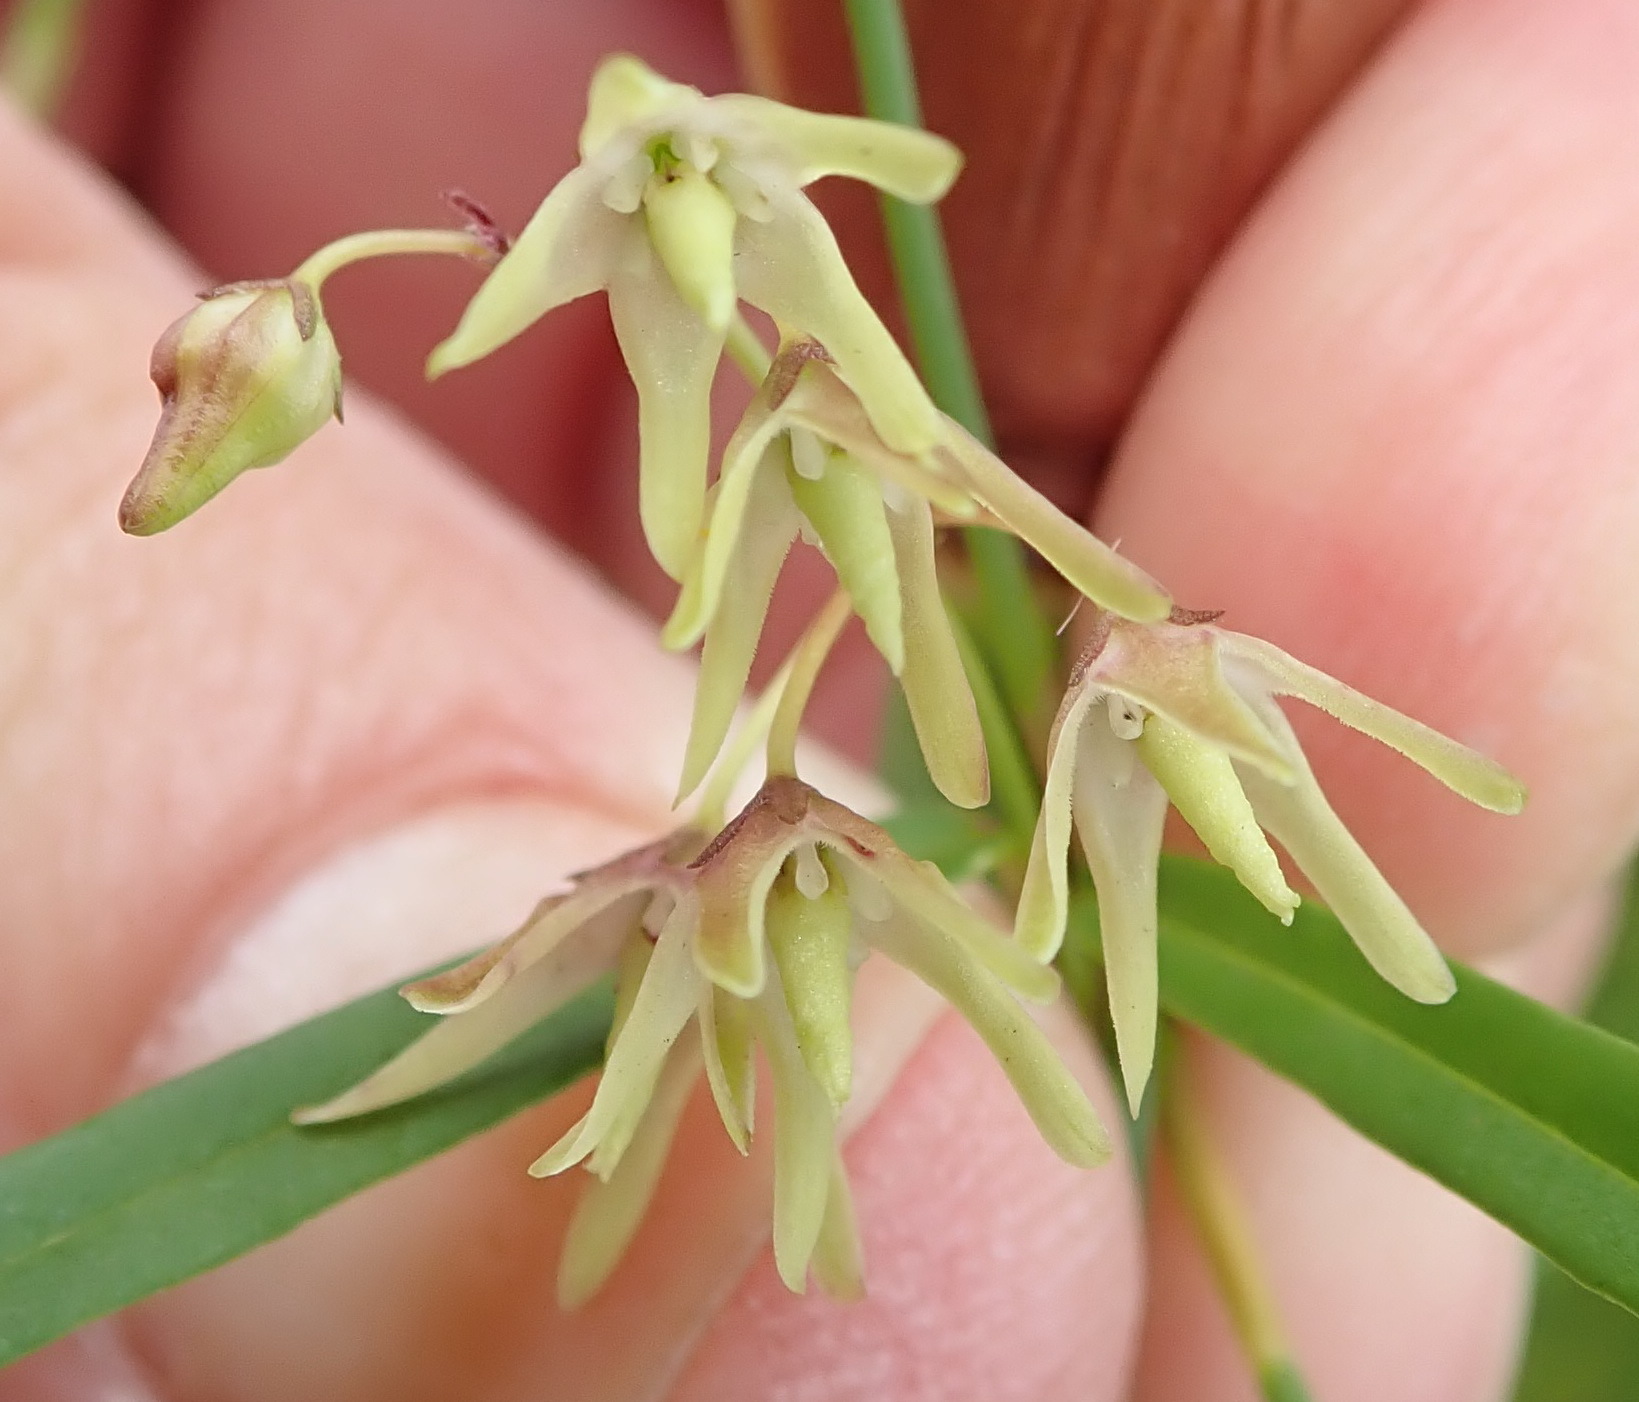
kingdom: Plantae
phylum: Tracheophyta
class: Magnoliopsida
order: Gentianales
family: Apocynaceae
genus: Oncinema
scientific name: Oncinema lineare
